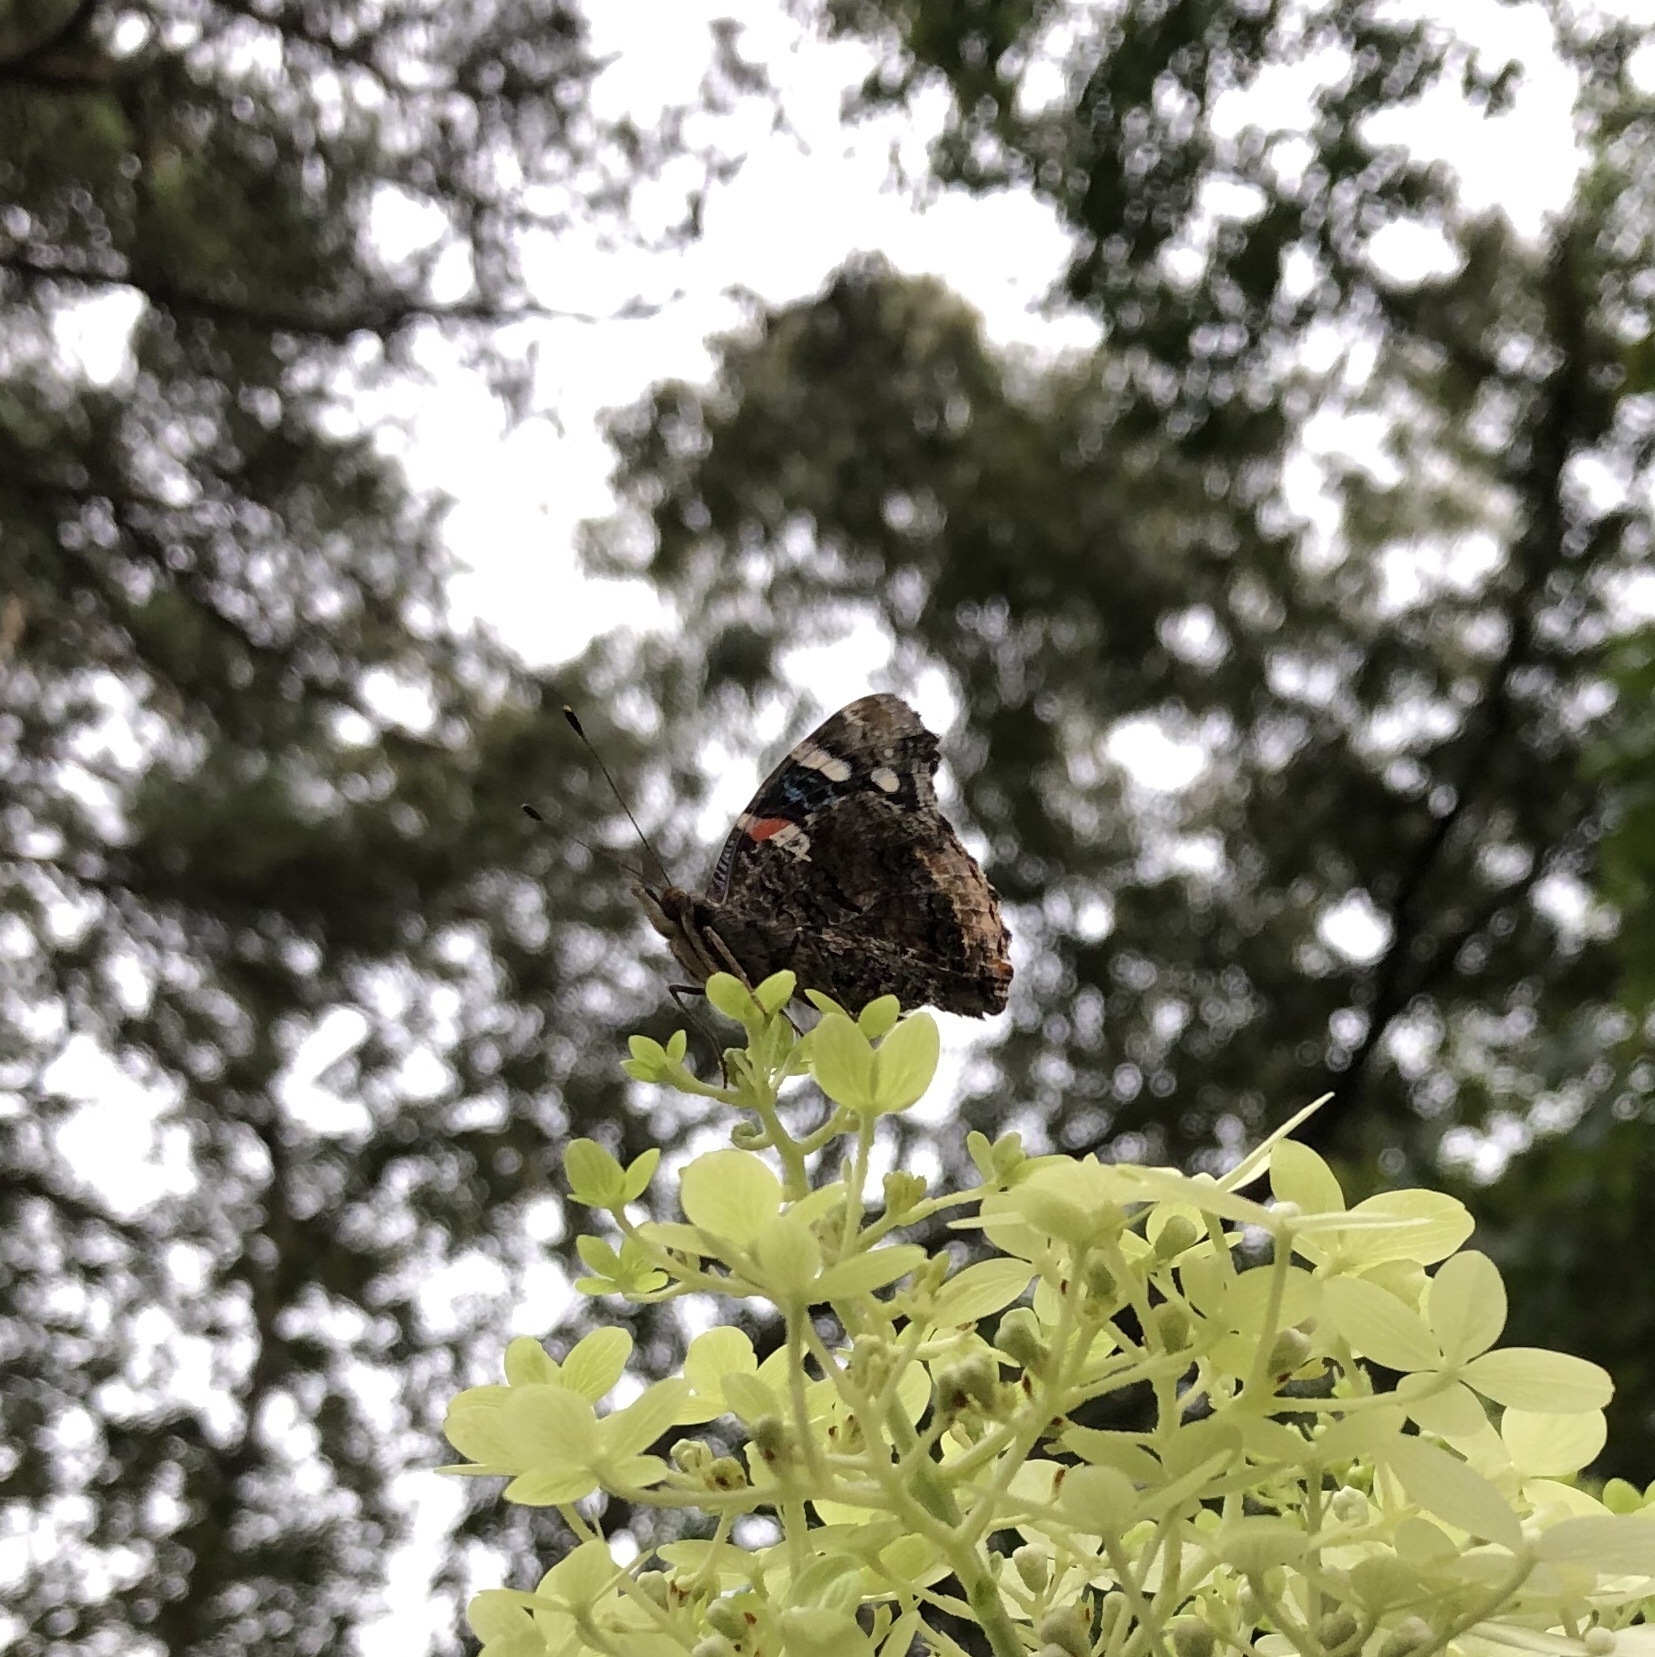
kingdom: Animalia
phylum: Arthropoda
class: Insecta
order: Lepidoptera
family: Nymphalidae
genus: Vanessa
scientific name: Vanessa atalanta
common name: Red admiral
